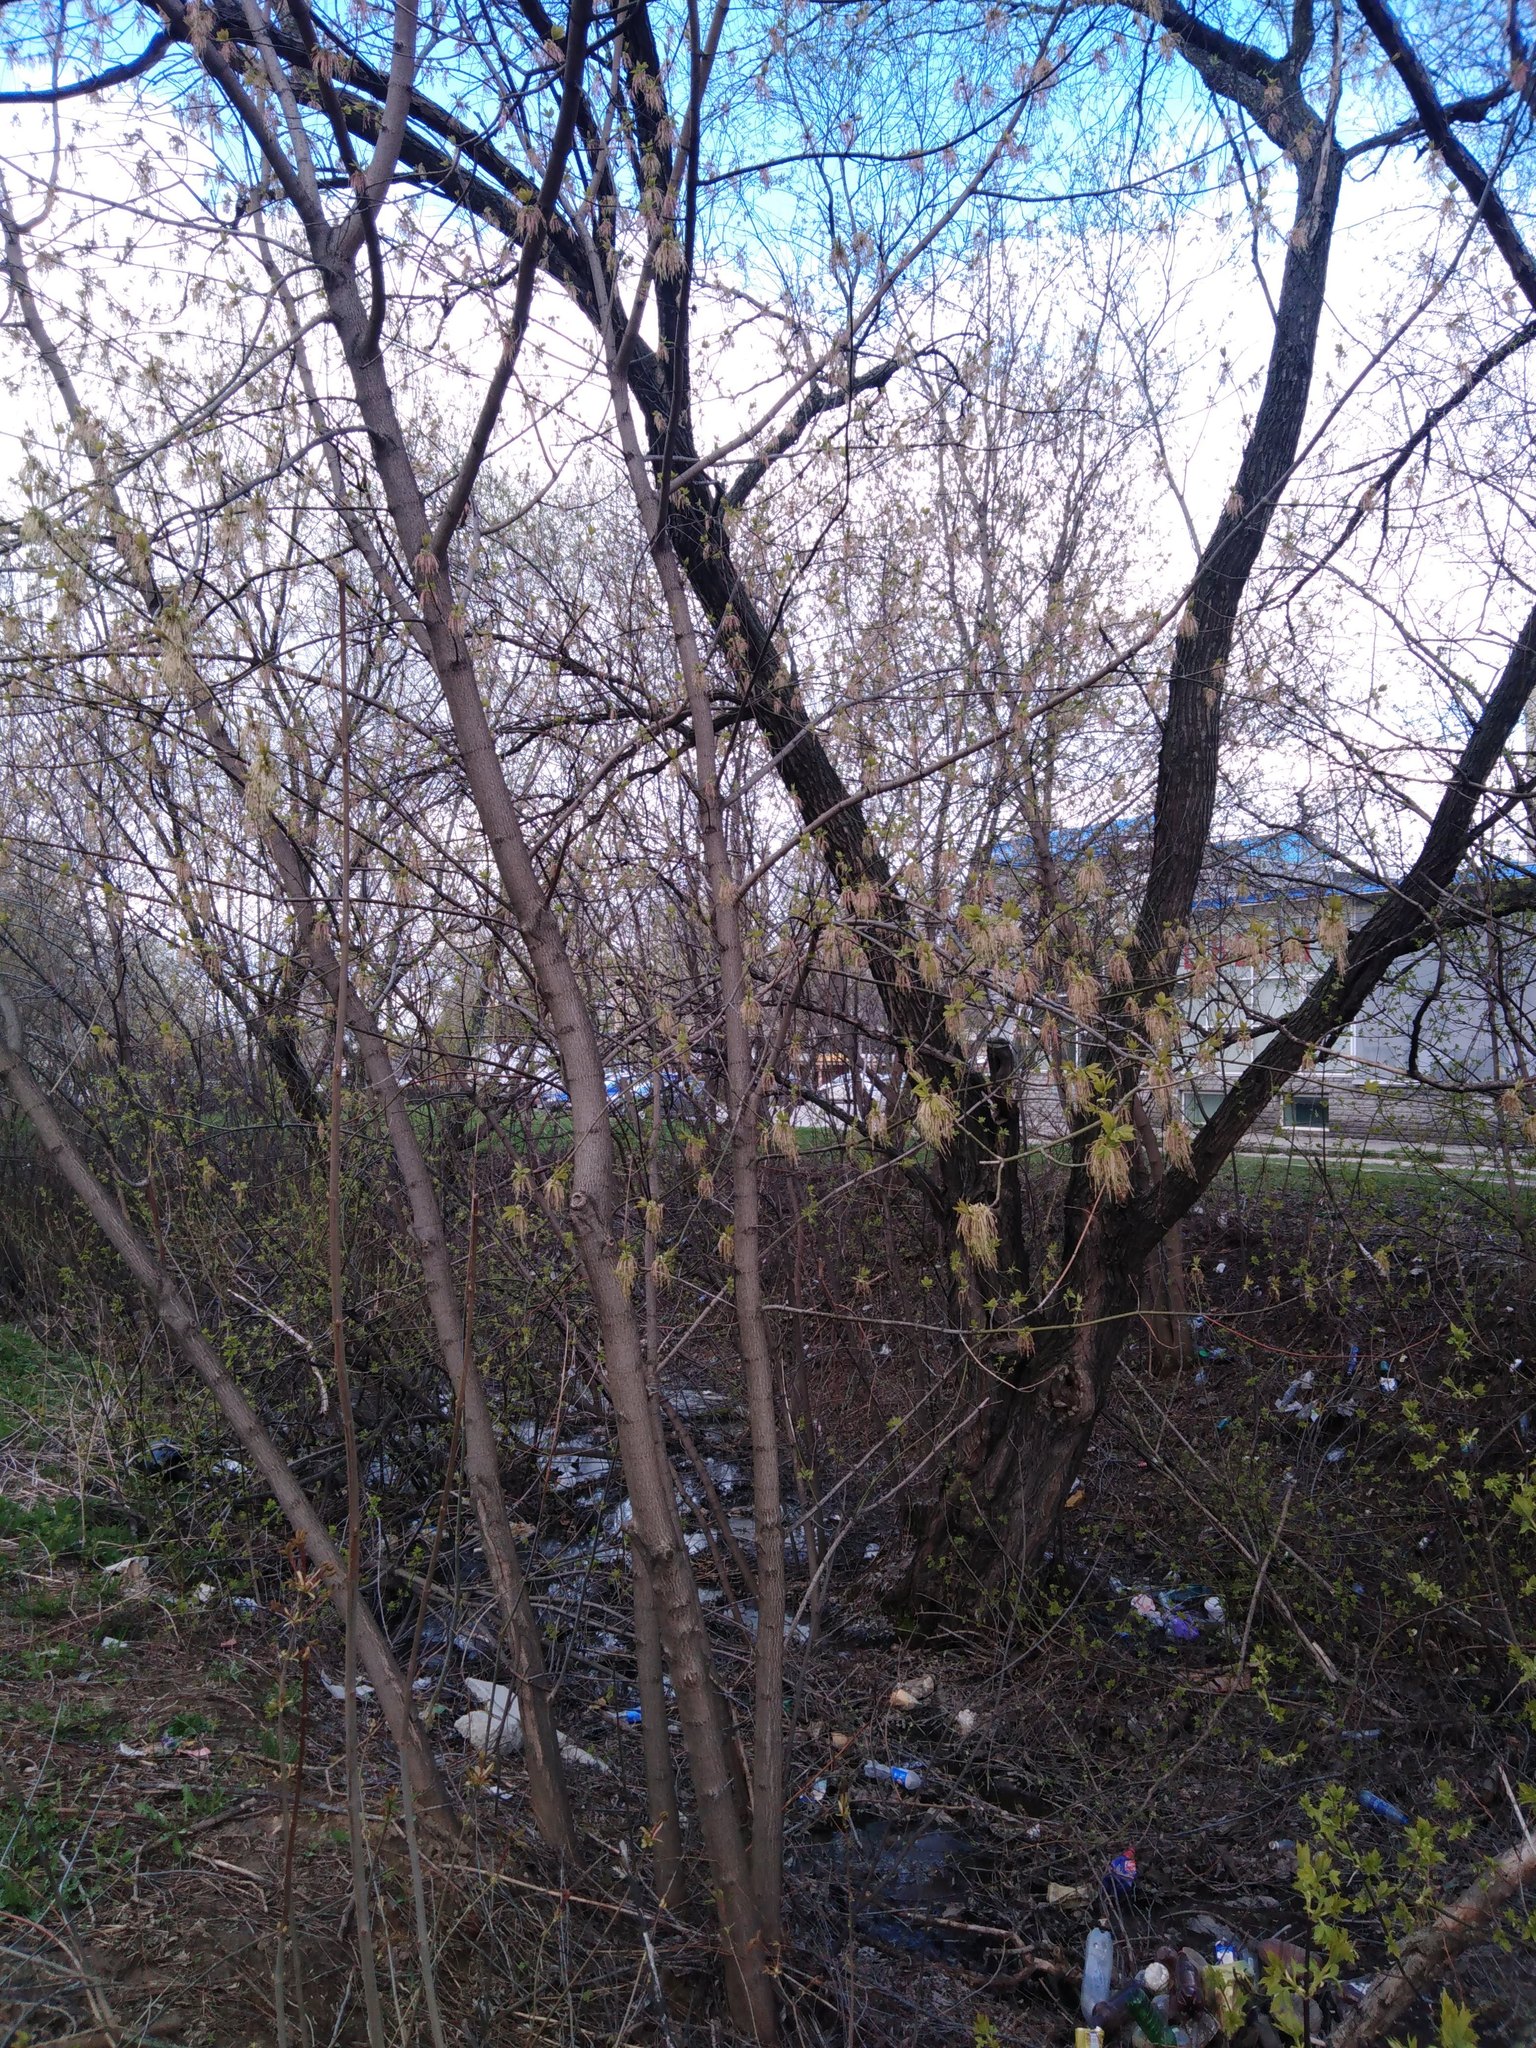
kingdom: Plantae
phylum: Tracheophyta
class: Magnoliopsida
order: Sapindales
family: Sapindaceae
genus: Acer
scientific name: Acer negundo
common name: Ashleaf maple
